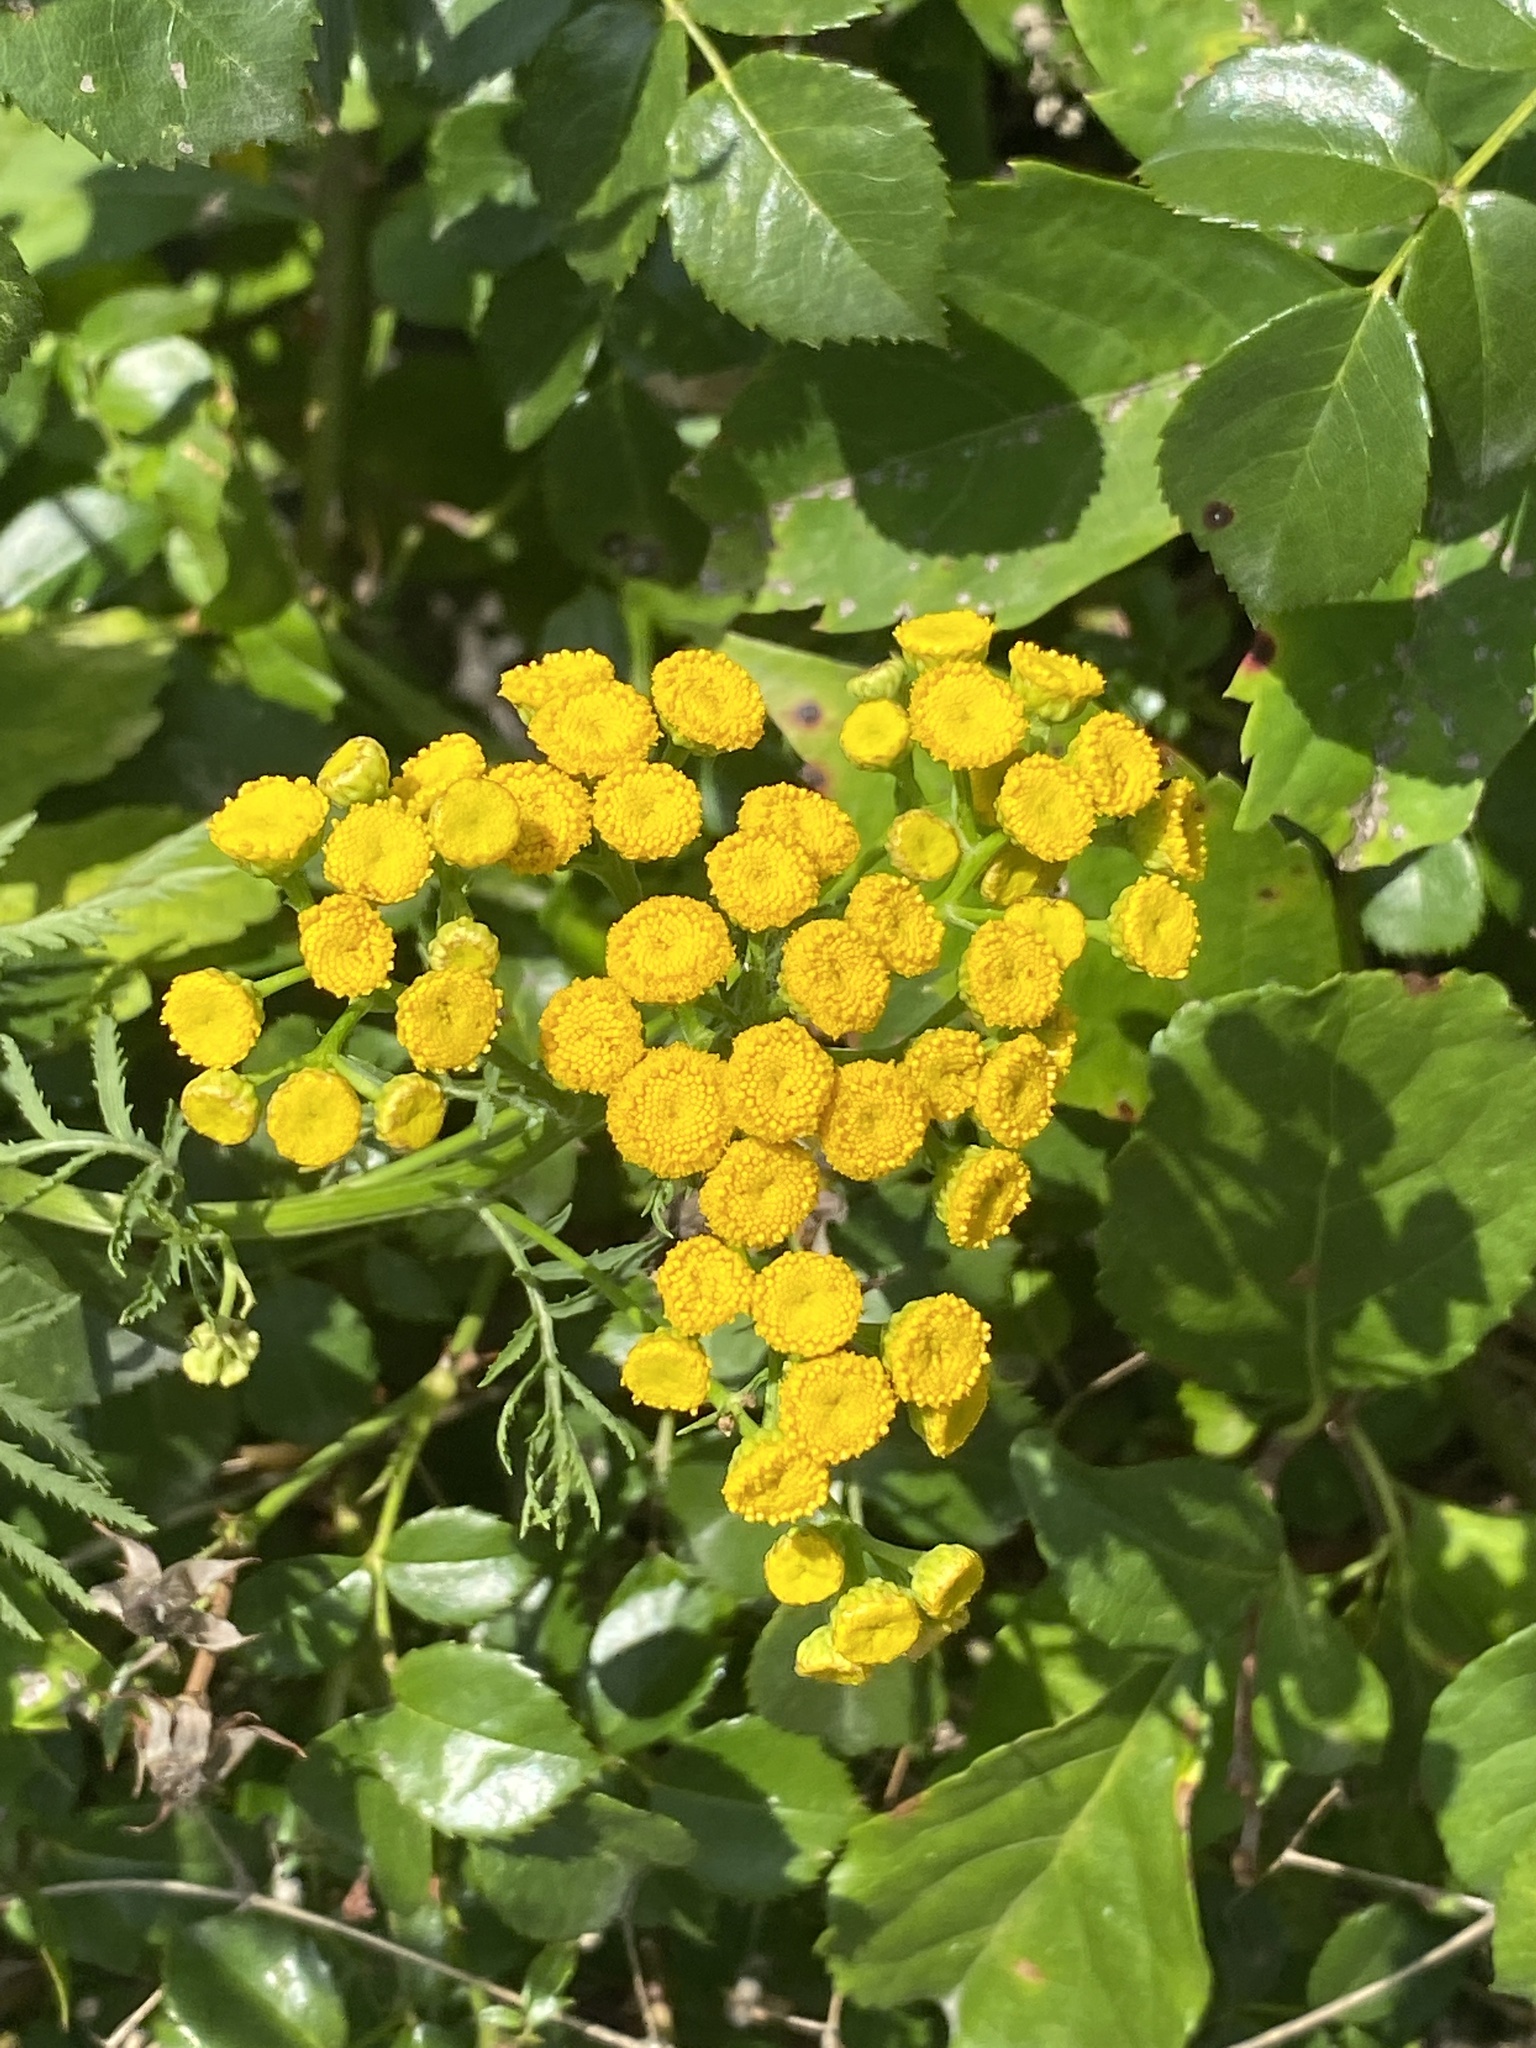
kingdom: Plantae
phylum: Tracheophyta
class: Magnoliopsida
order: Asterales
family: Asteraceae
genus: Tanacetum
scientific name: Tanacetum vulgare
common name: Common tansy
